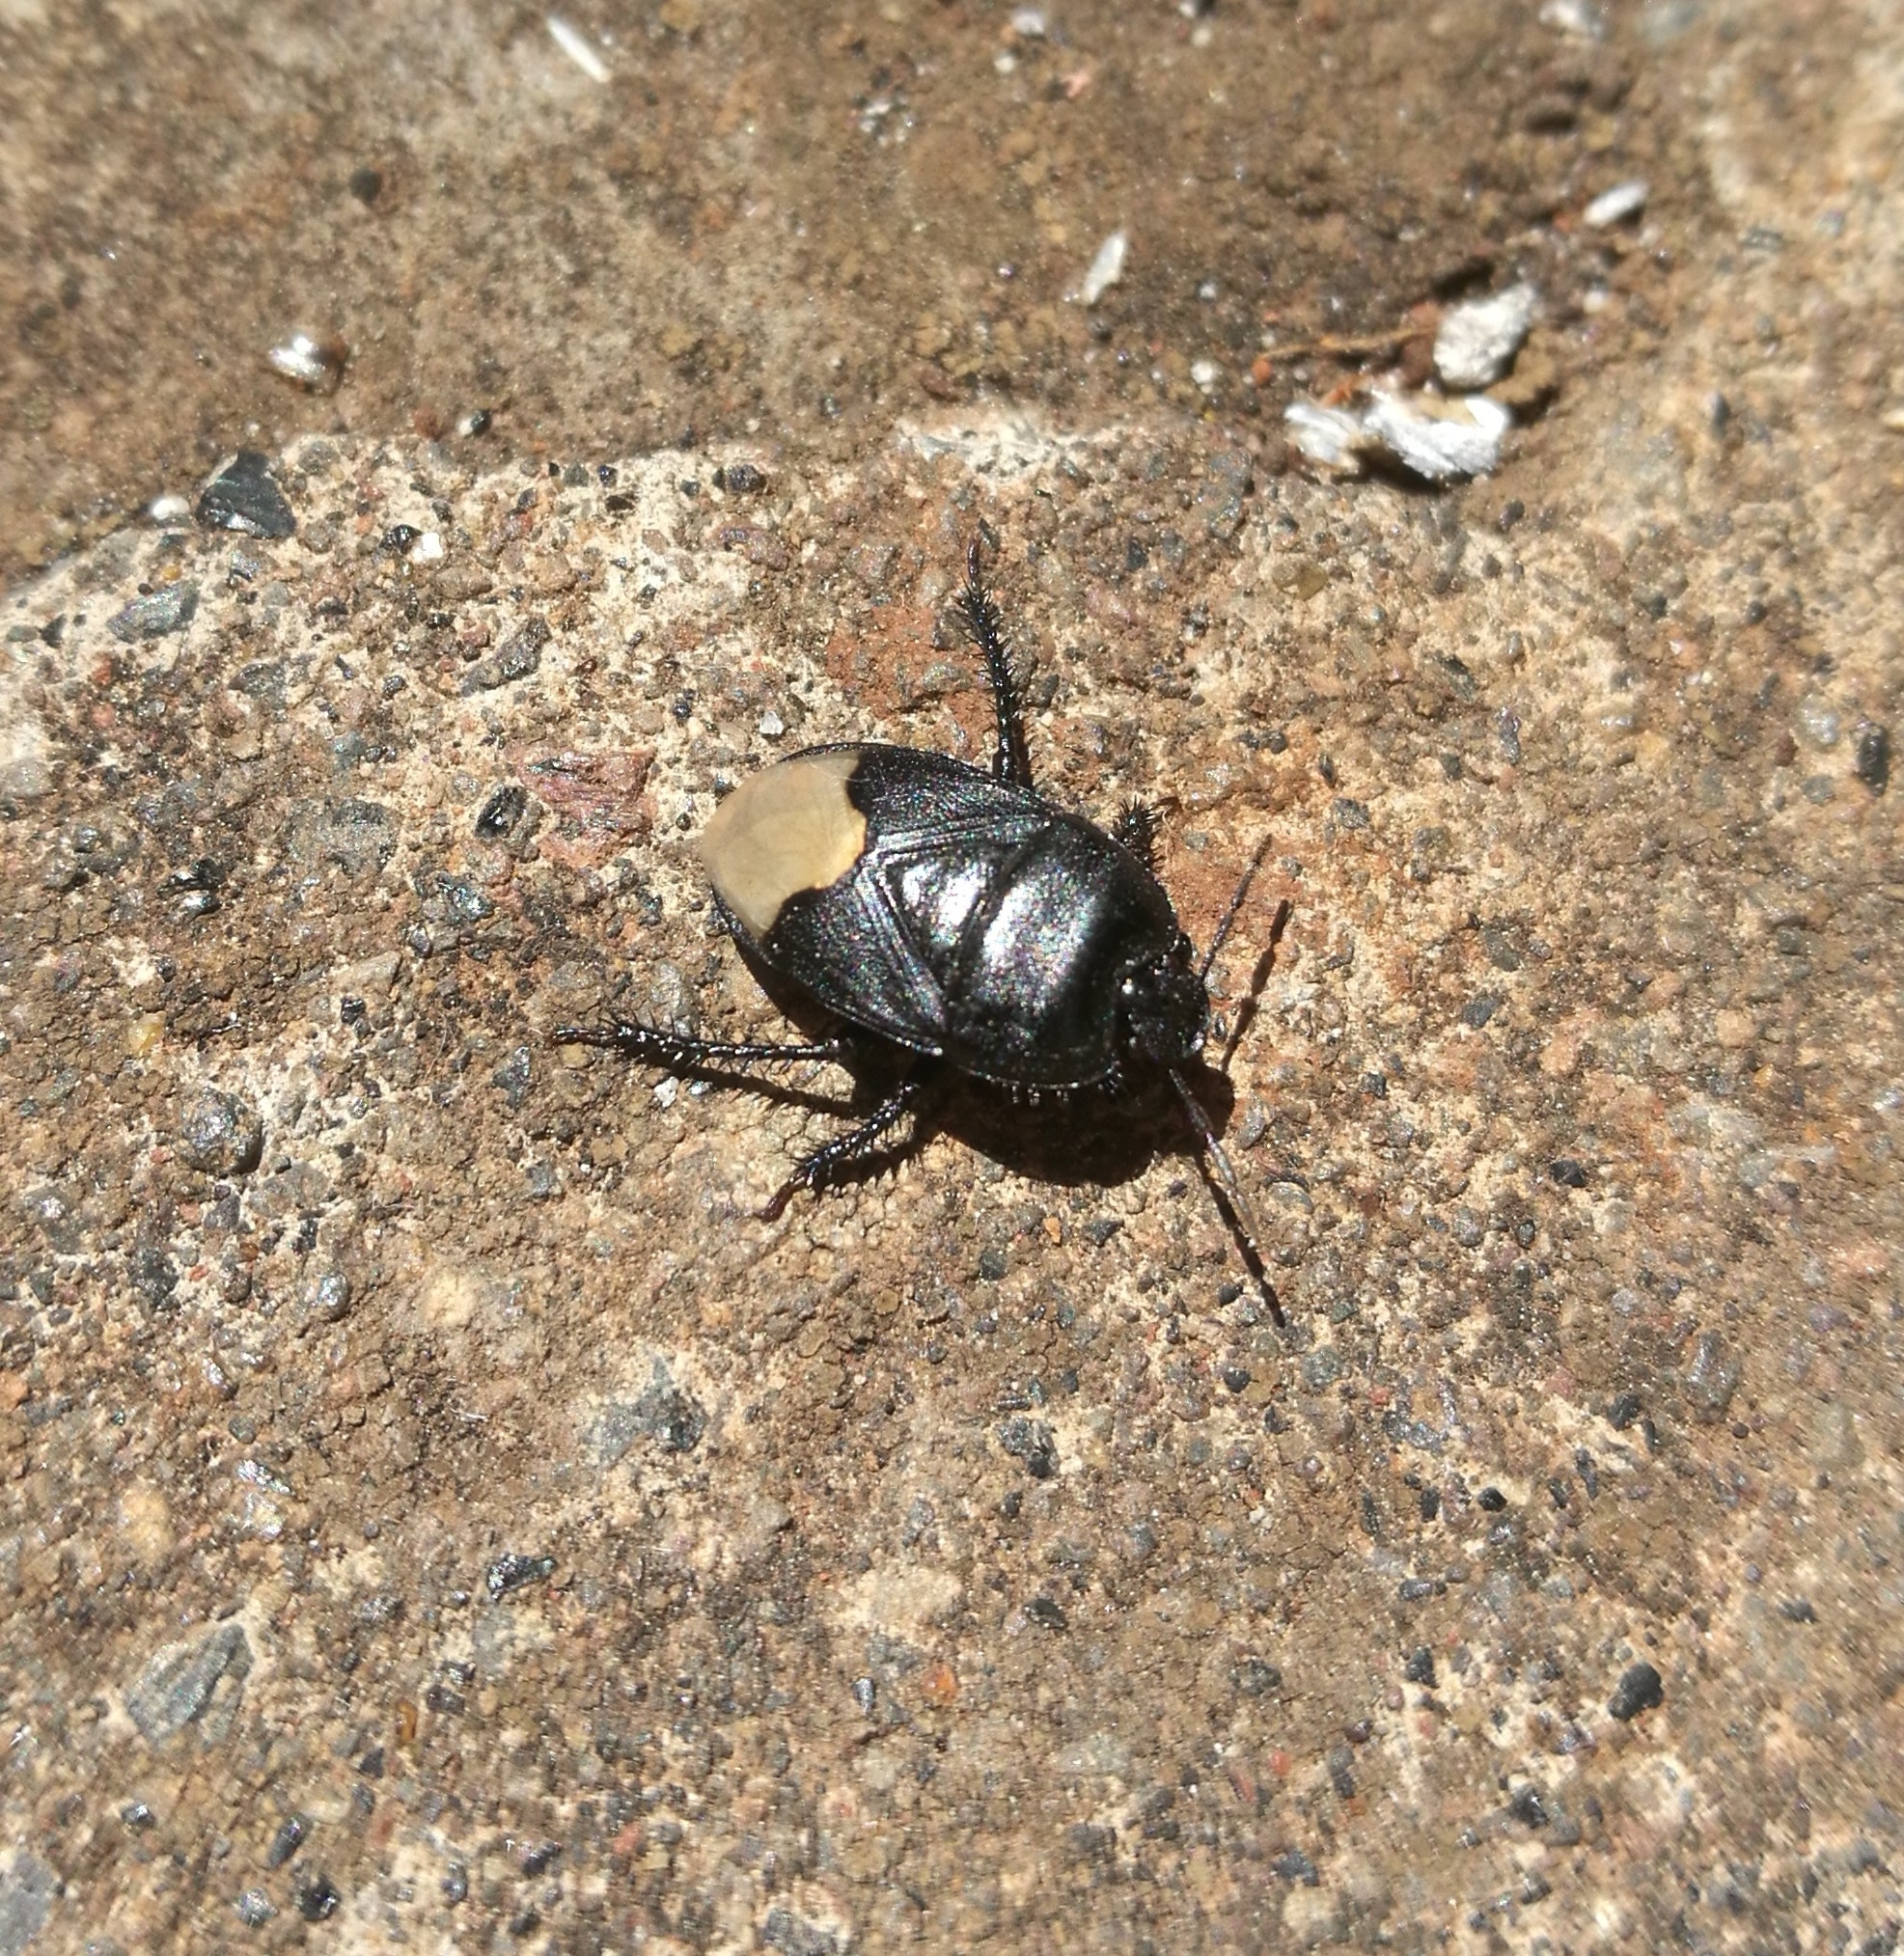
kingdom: Animalia
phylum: Arthropoda
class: Insecta
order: Hemiptera
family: Cydnidae
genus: Cydnus
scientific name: Cydnus aterrimus
